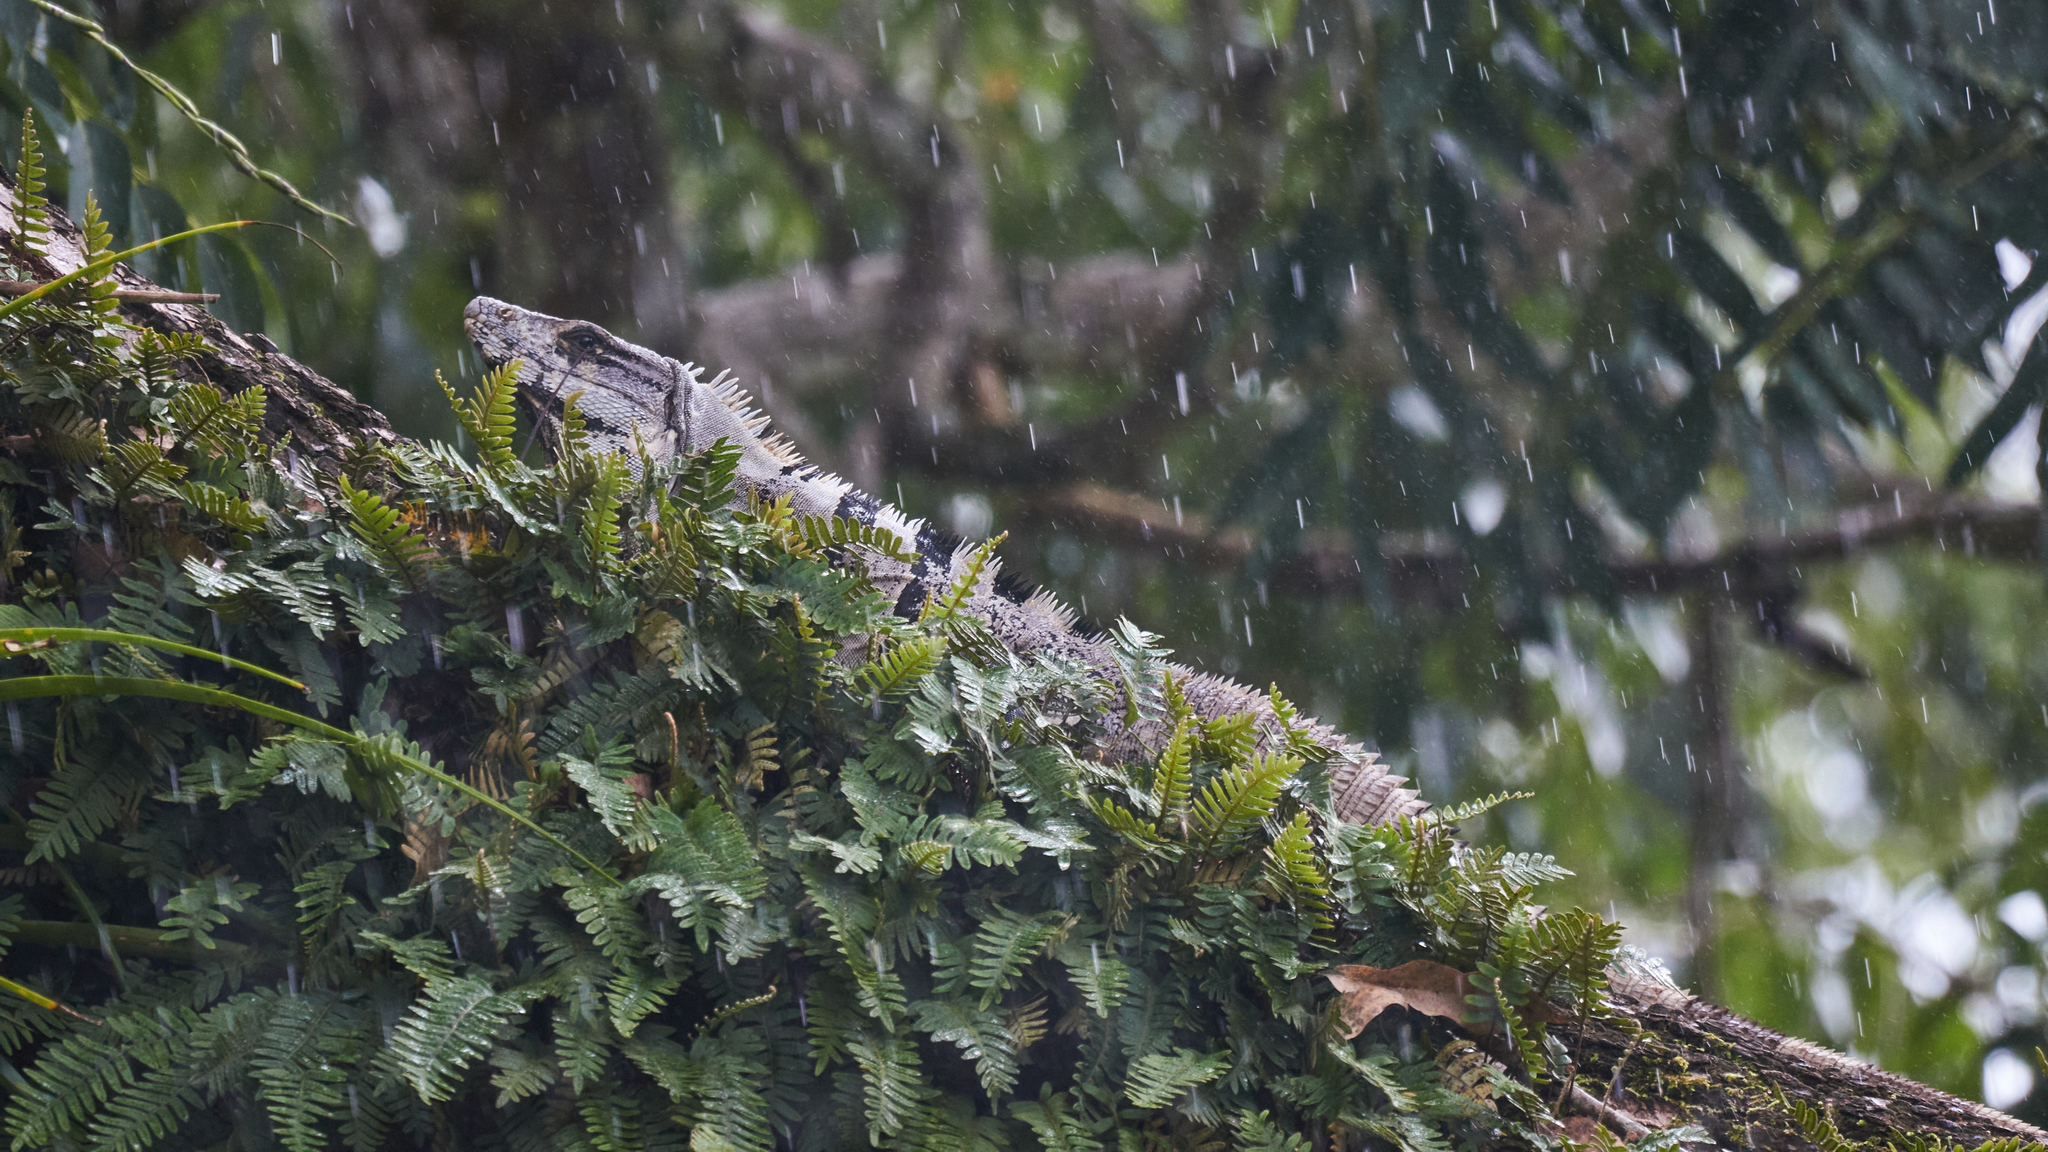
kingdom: Animalia
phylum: Chordata
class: Squamata
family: Iguanidae
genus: Ctenosaura
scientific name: Ctenosaura similis
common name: Black spiny-tailed iguana
